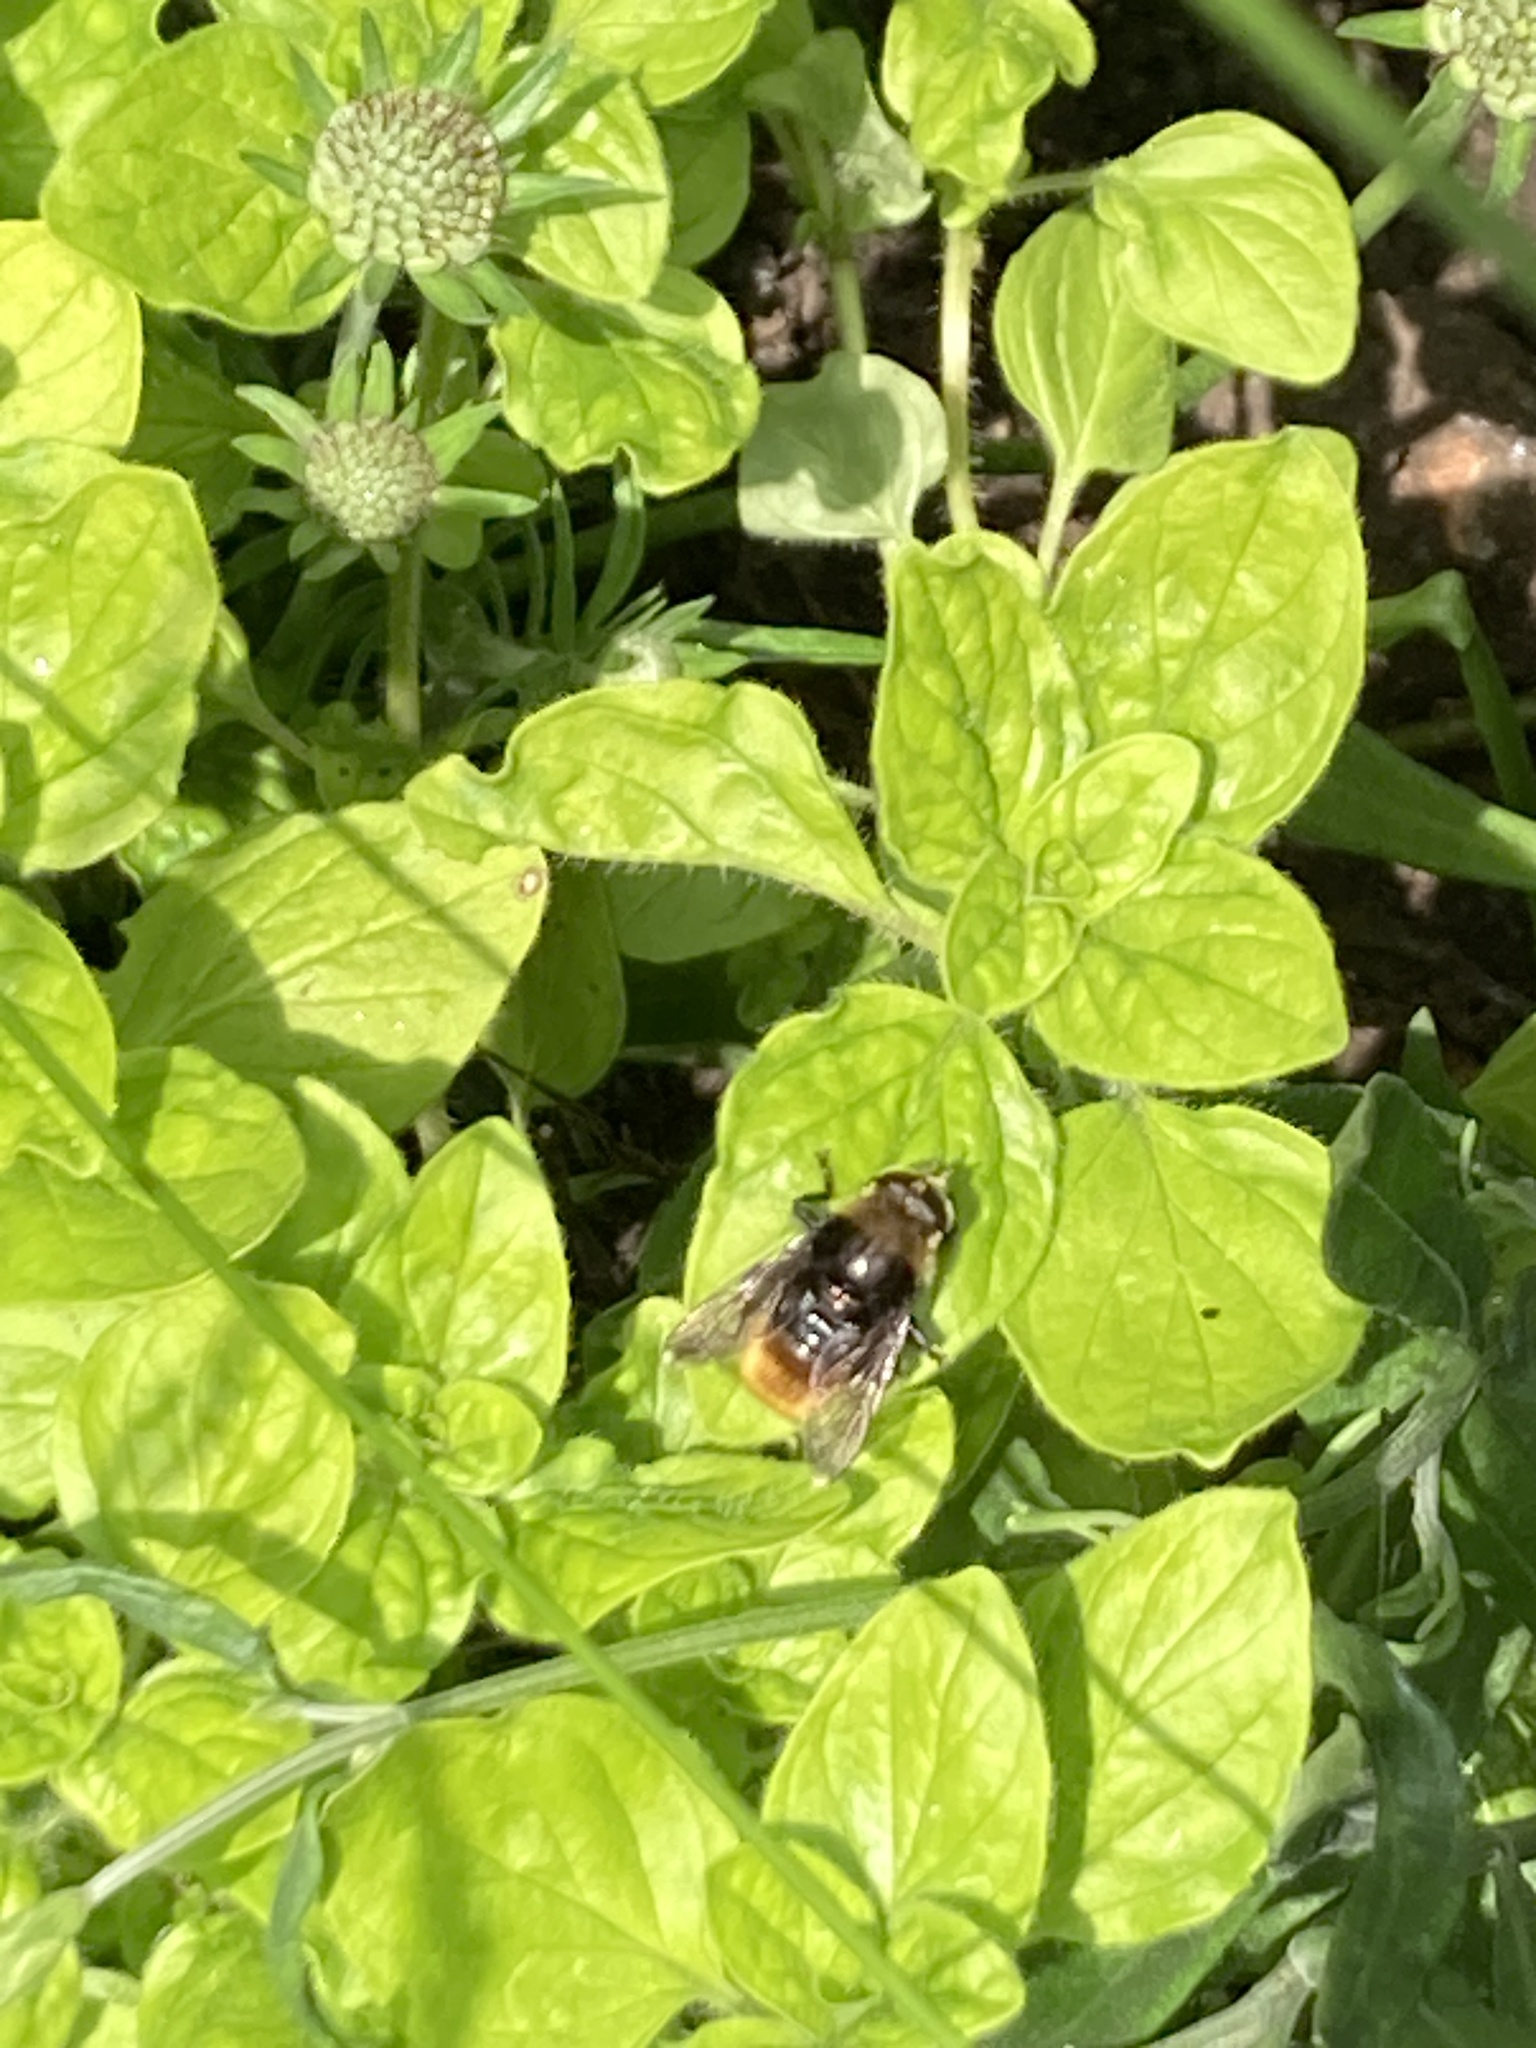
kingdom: Animalia
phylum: Arthropoda
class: Insecta
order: Diptera
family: Syrphidae
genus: Merodon
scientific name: Merodon equestris
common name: Greater bulb-fly
